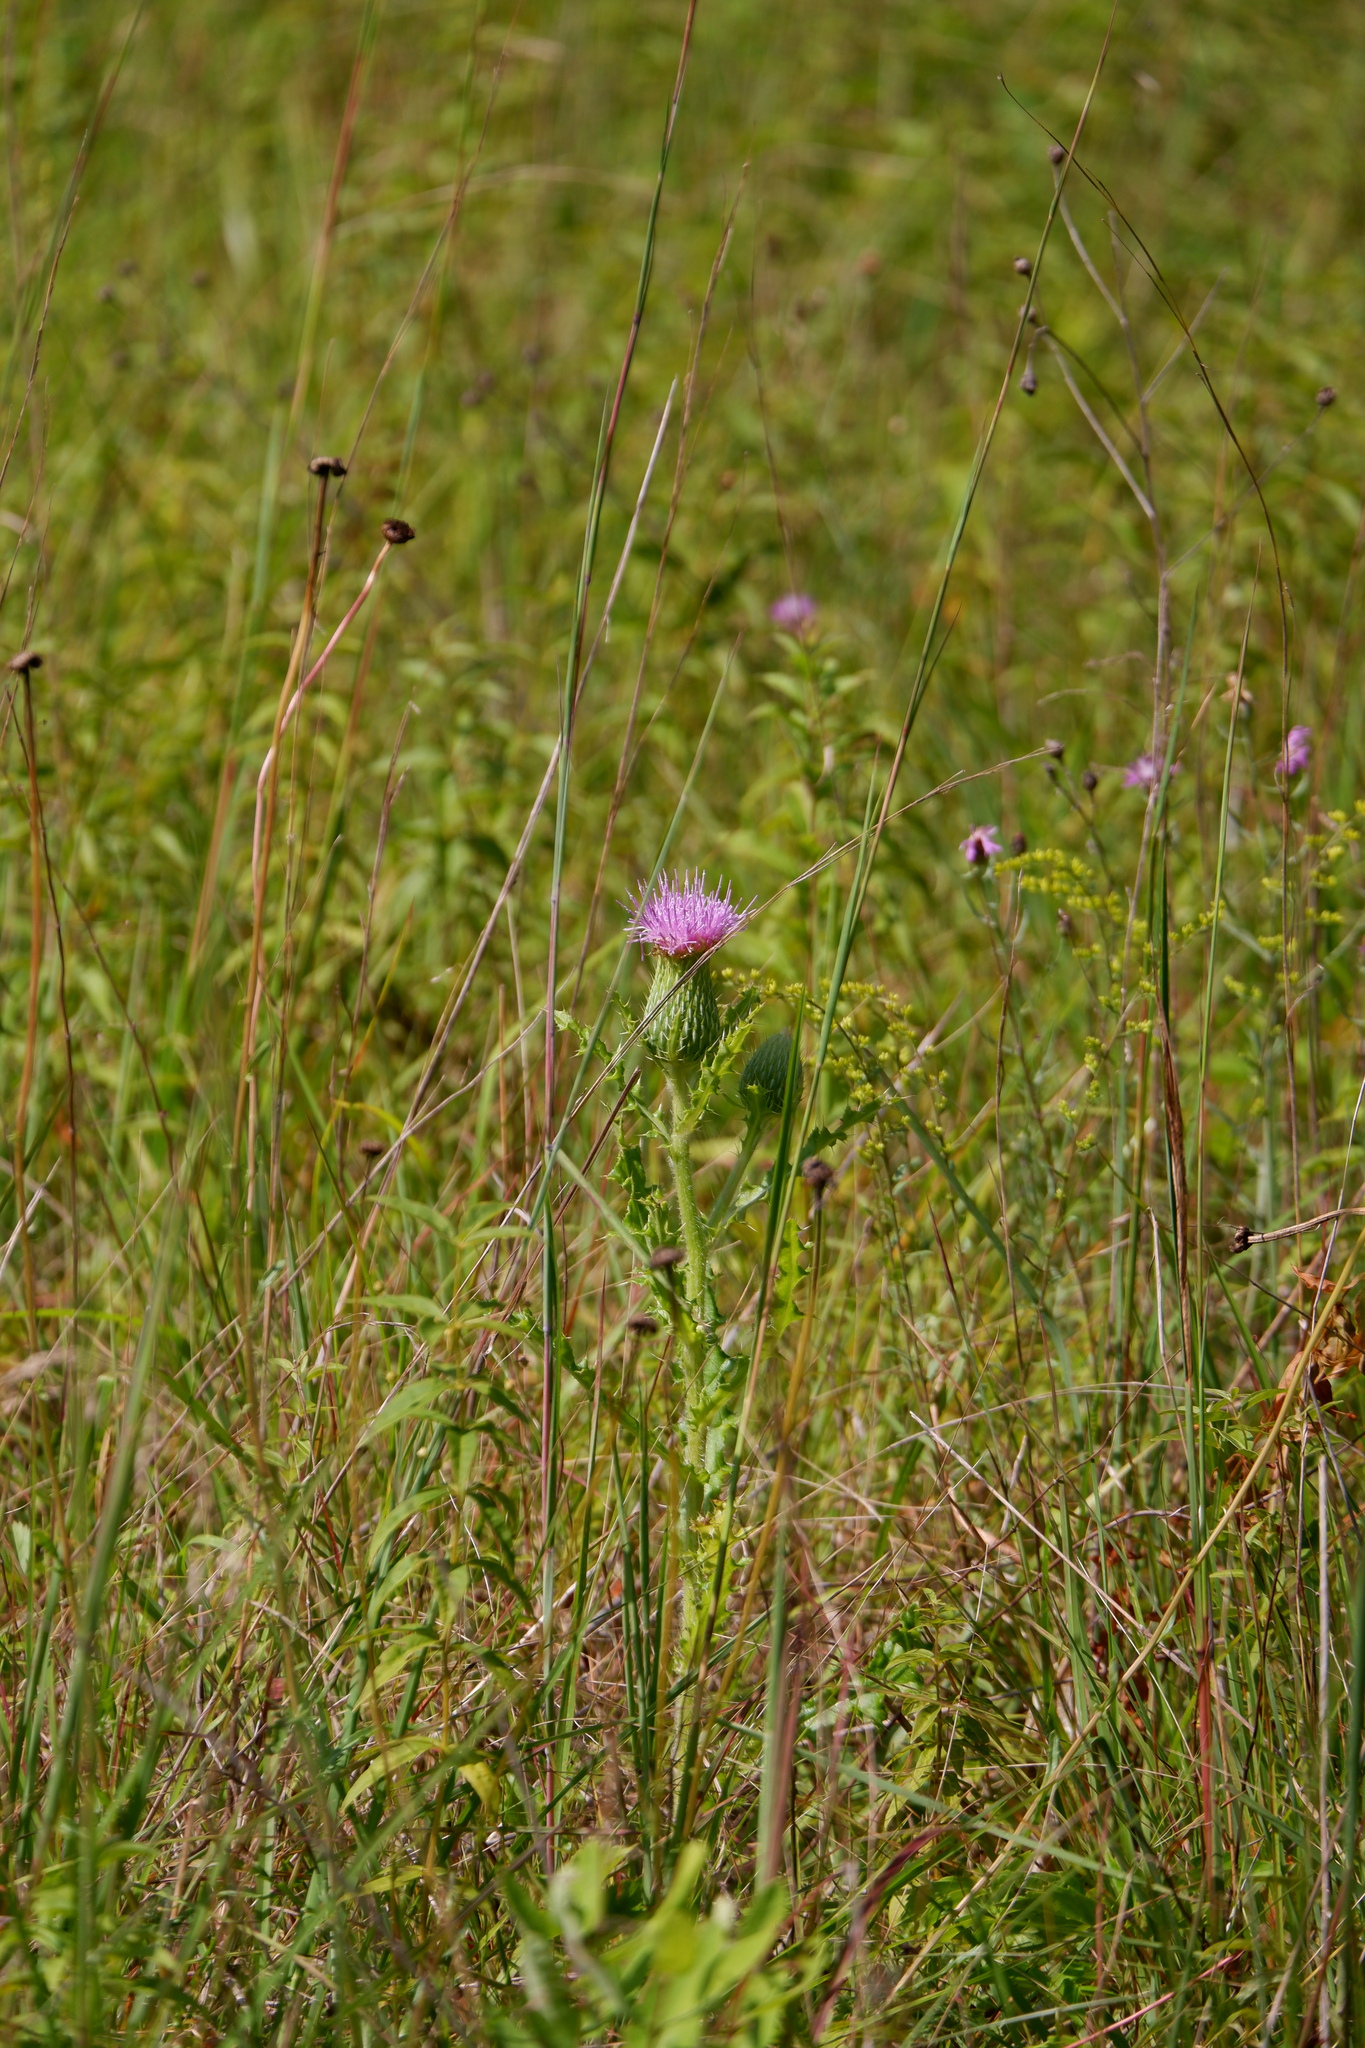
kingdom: Plantae
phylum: Tracheophyta
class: Magnoliopsida
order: Asterales
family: Asteraceae
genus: Cirsium
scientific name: Cirsium pumilum
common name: Pasture thistle
